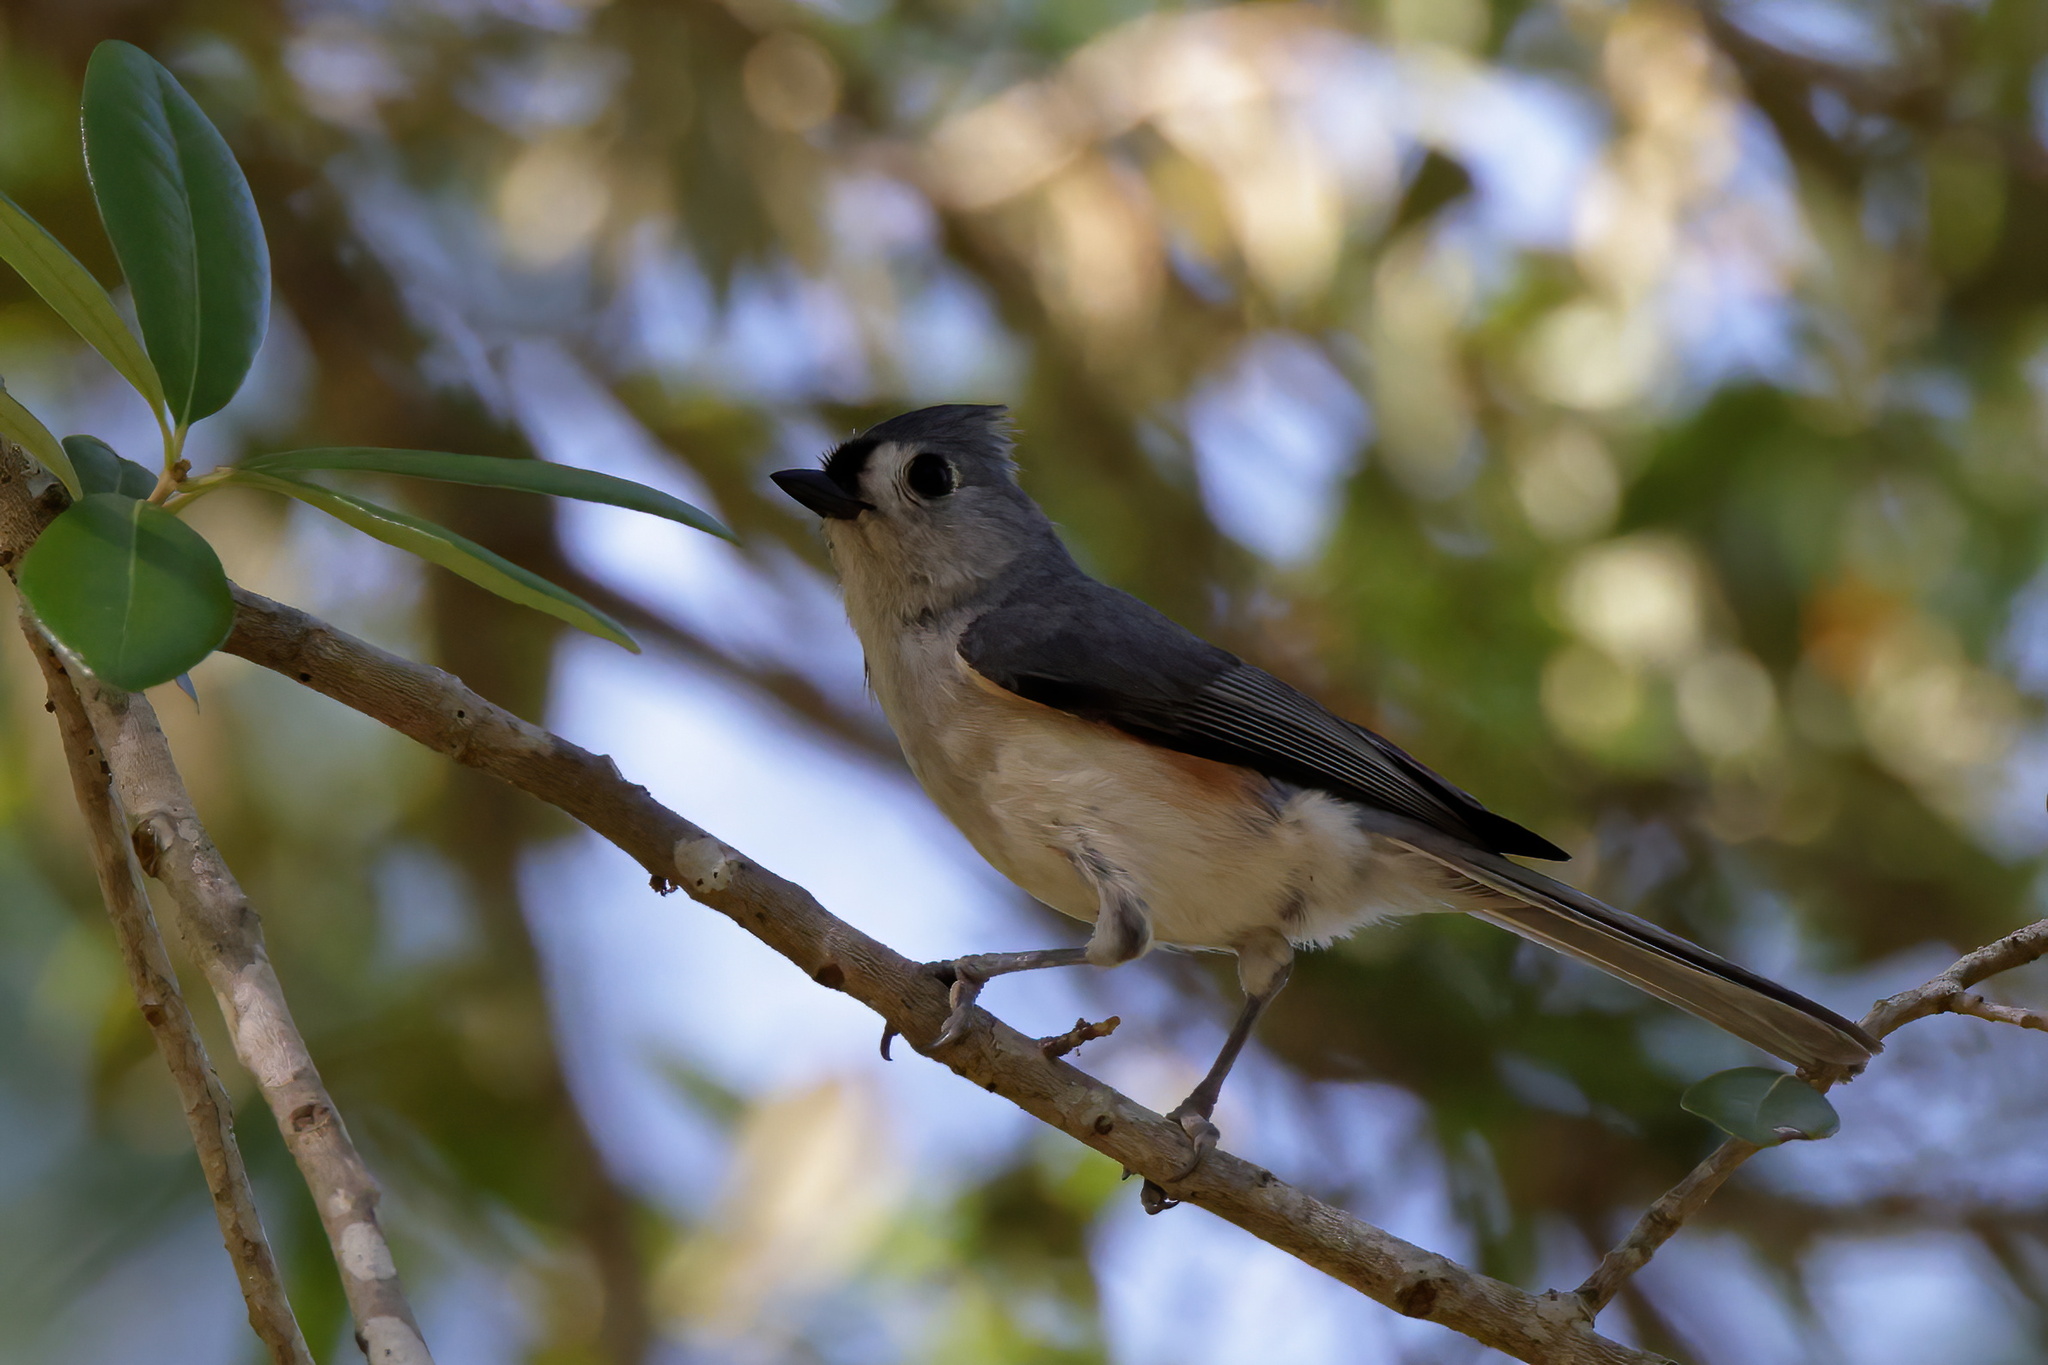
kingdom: Animalia
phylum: Chordata
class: Aves
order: Passeriformes
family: Paridae
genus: Baeolophus
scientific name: Baeolophus bicolor
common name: Tufted titmouse
